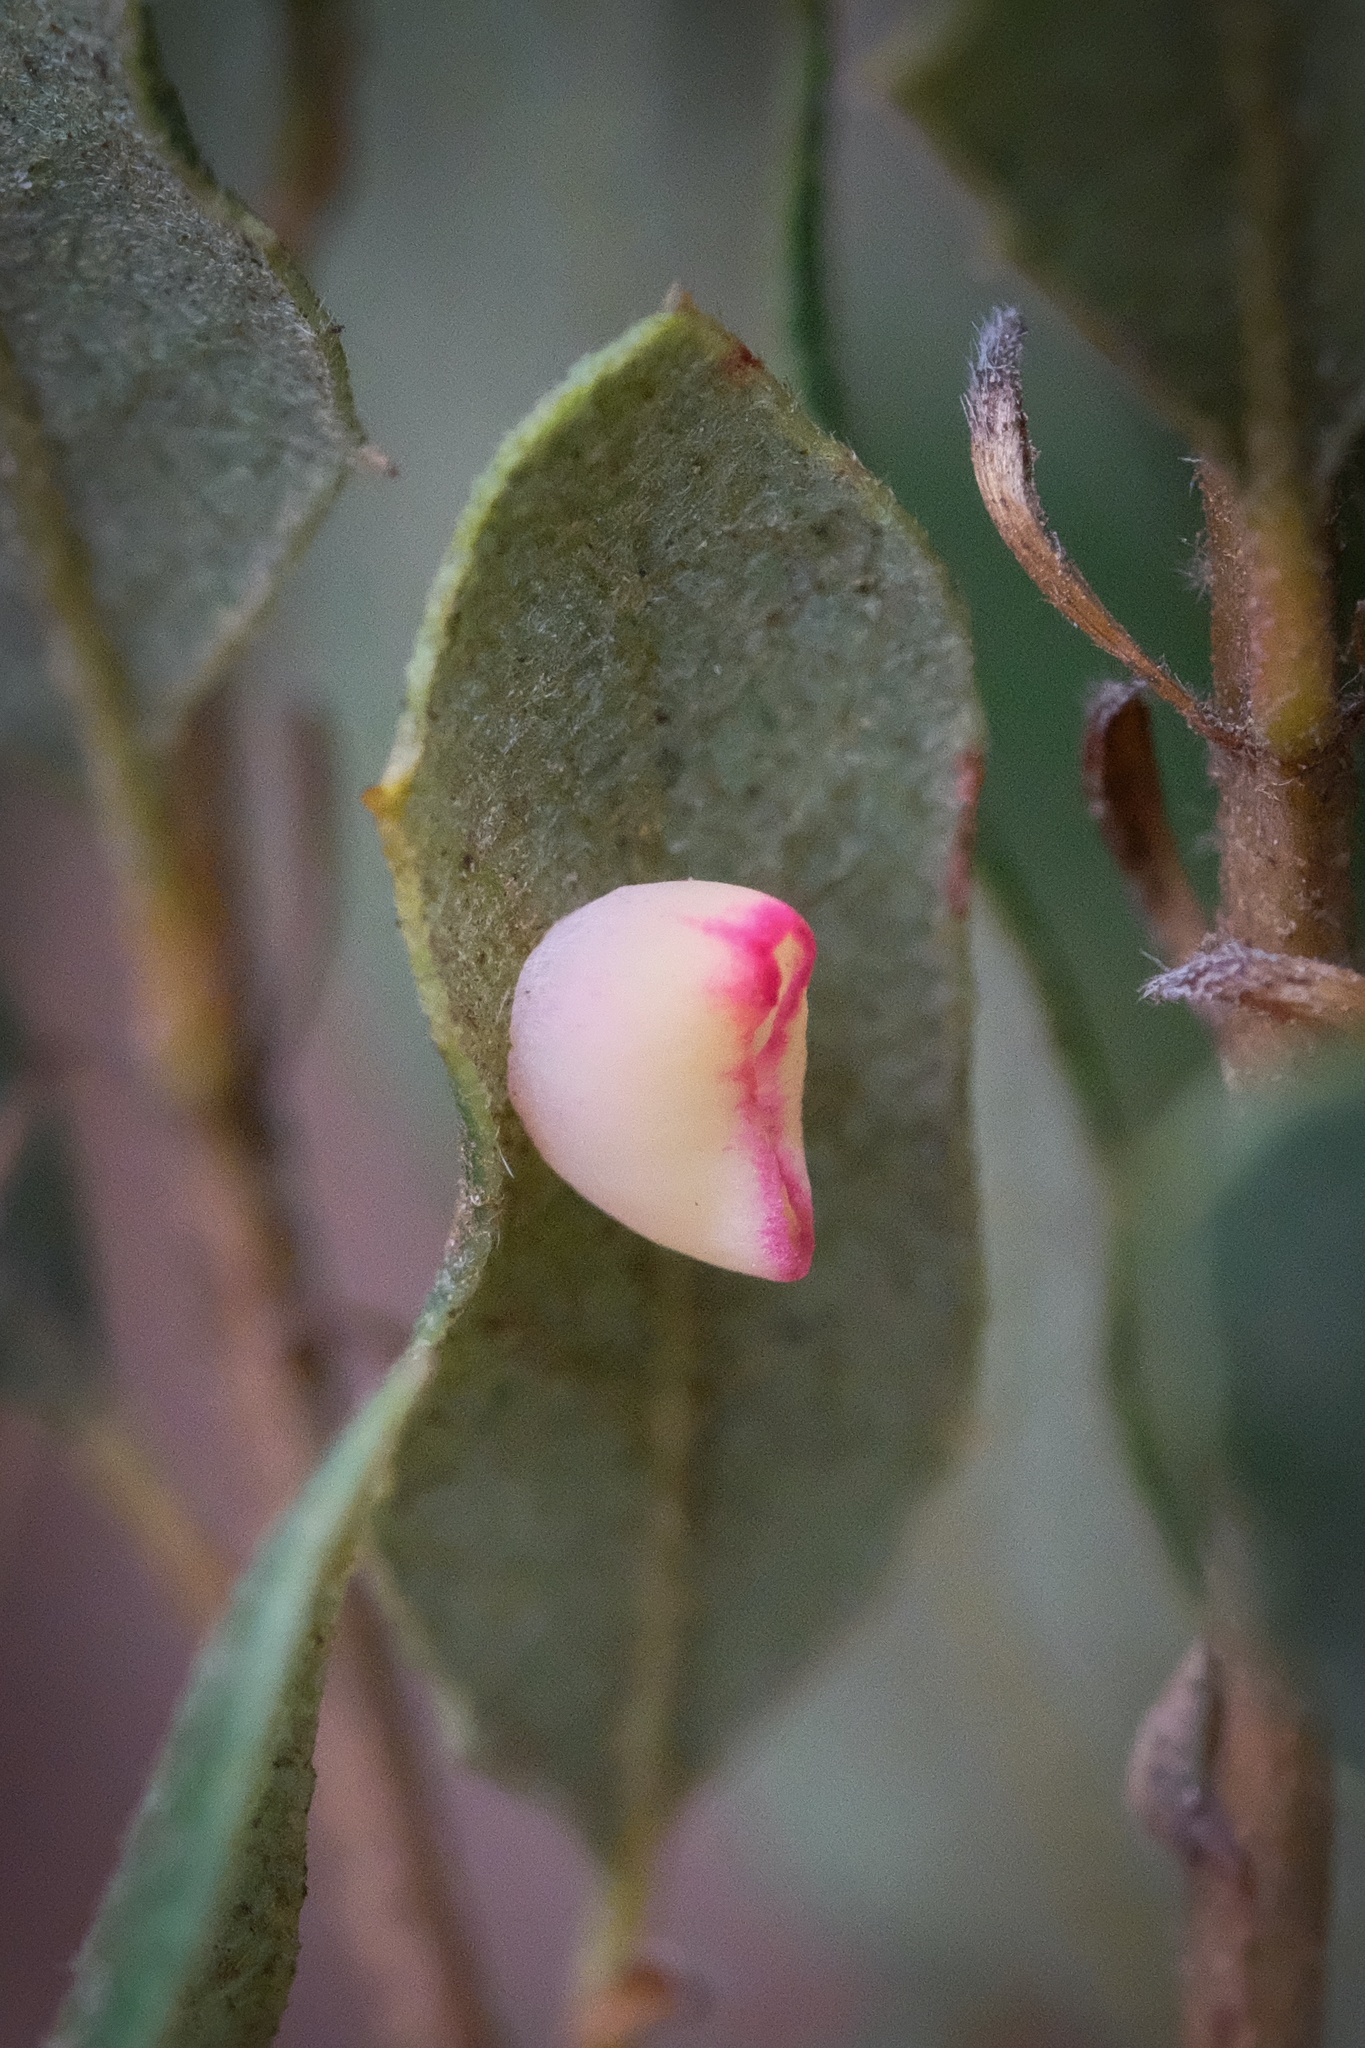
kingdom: Animalia
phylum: Arthropoda
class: Insecta
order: Hymenoptera
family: Cynipidae
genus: Andricus
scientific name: Andricus
